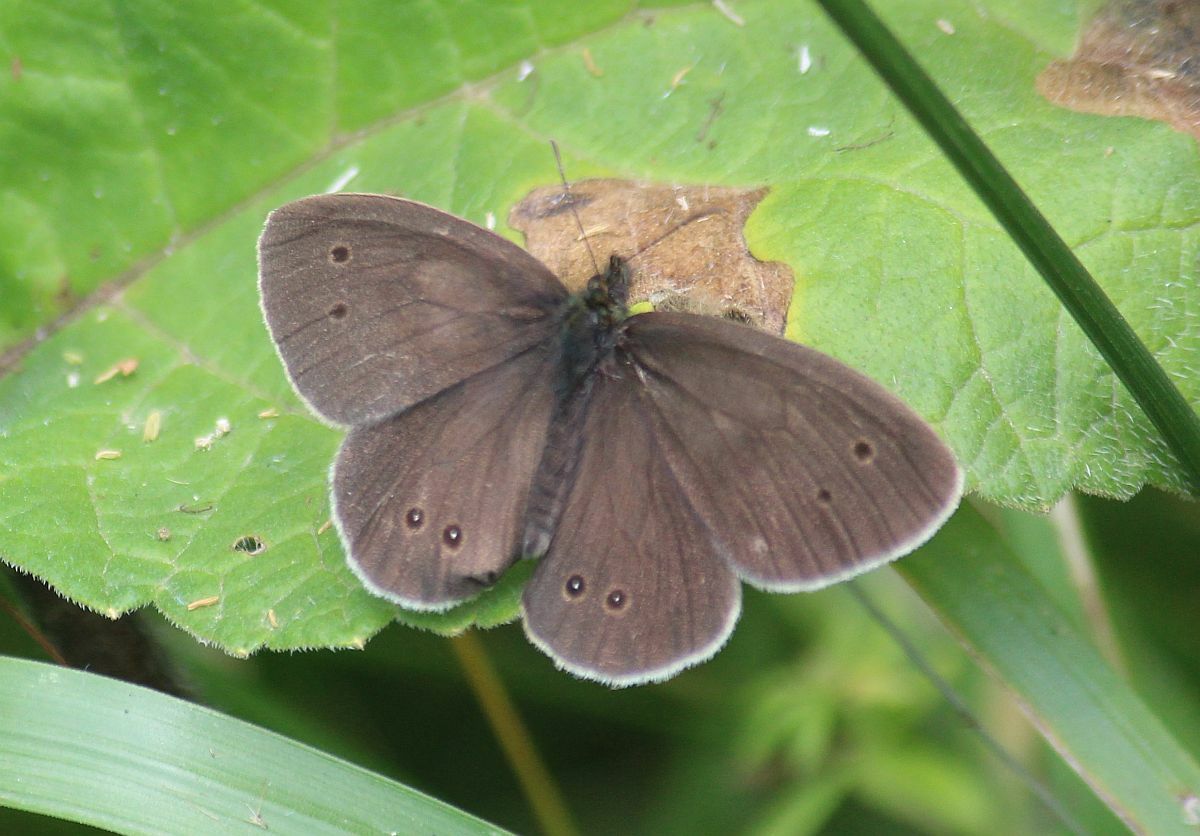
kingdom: Animalia
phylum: Arthropoda
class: Insecta
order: Lepidoptera
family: Nymphalidae
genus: Aphantopus
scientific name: Aphantopus hyperantus
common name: Ringlet
